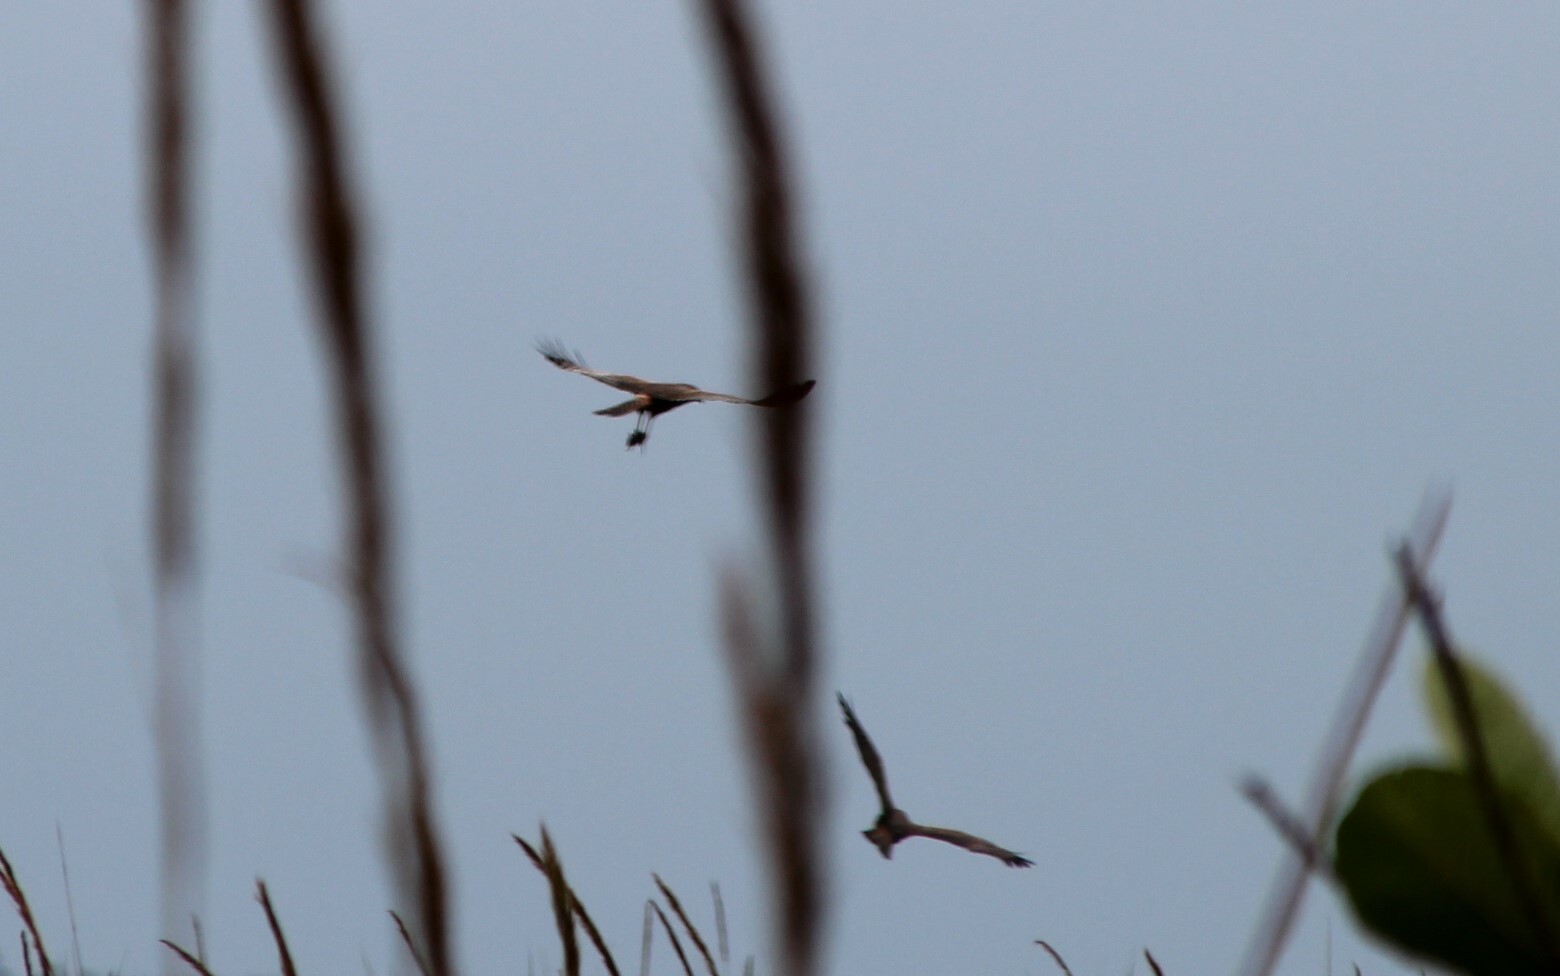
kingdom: Animalia
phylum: Chordata
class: Aves
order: Accipitriformes
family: Accipitridae
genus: Circus
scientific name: Circus ranivorus
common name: African marsh-harrier
